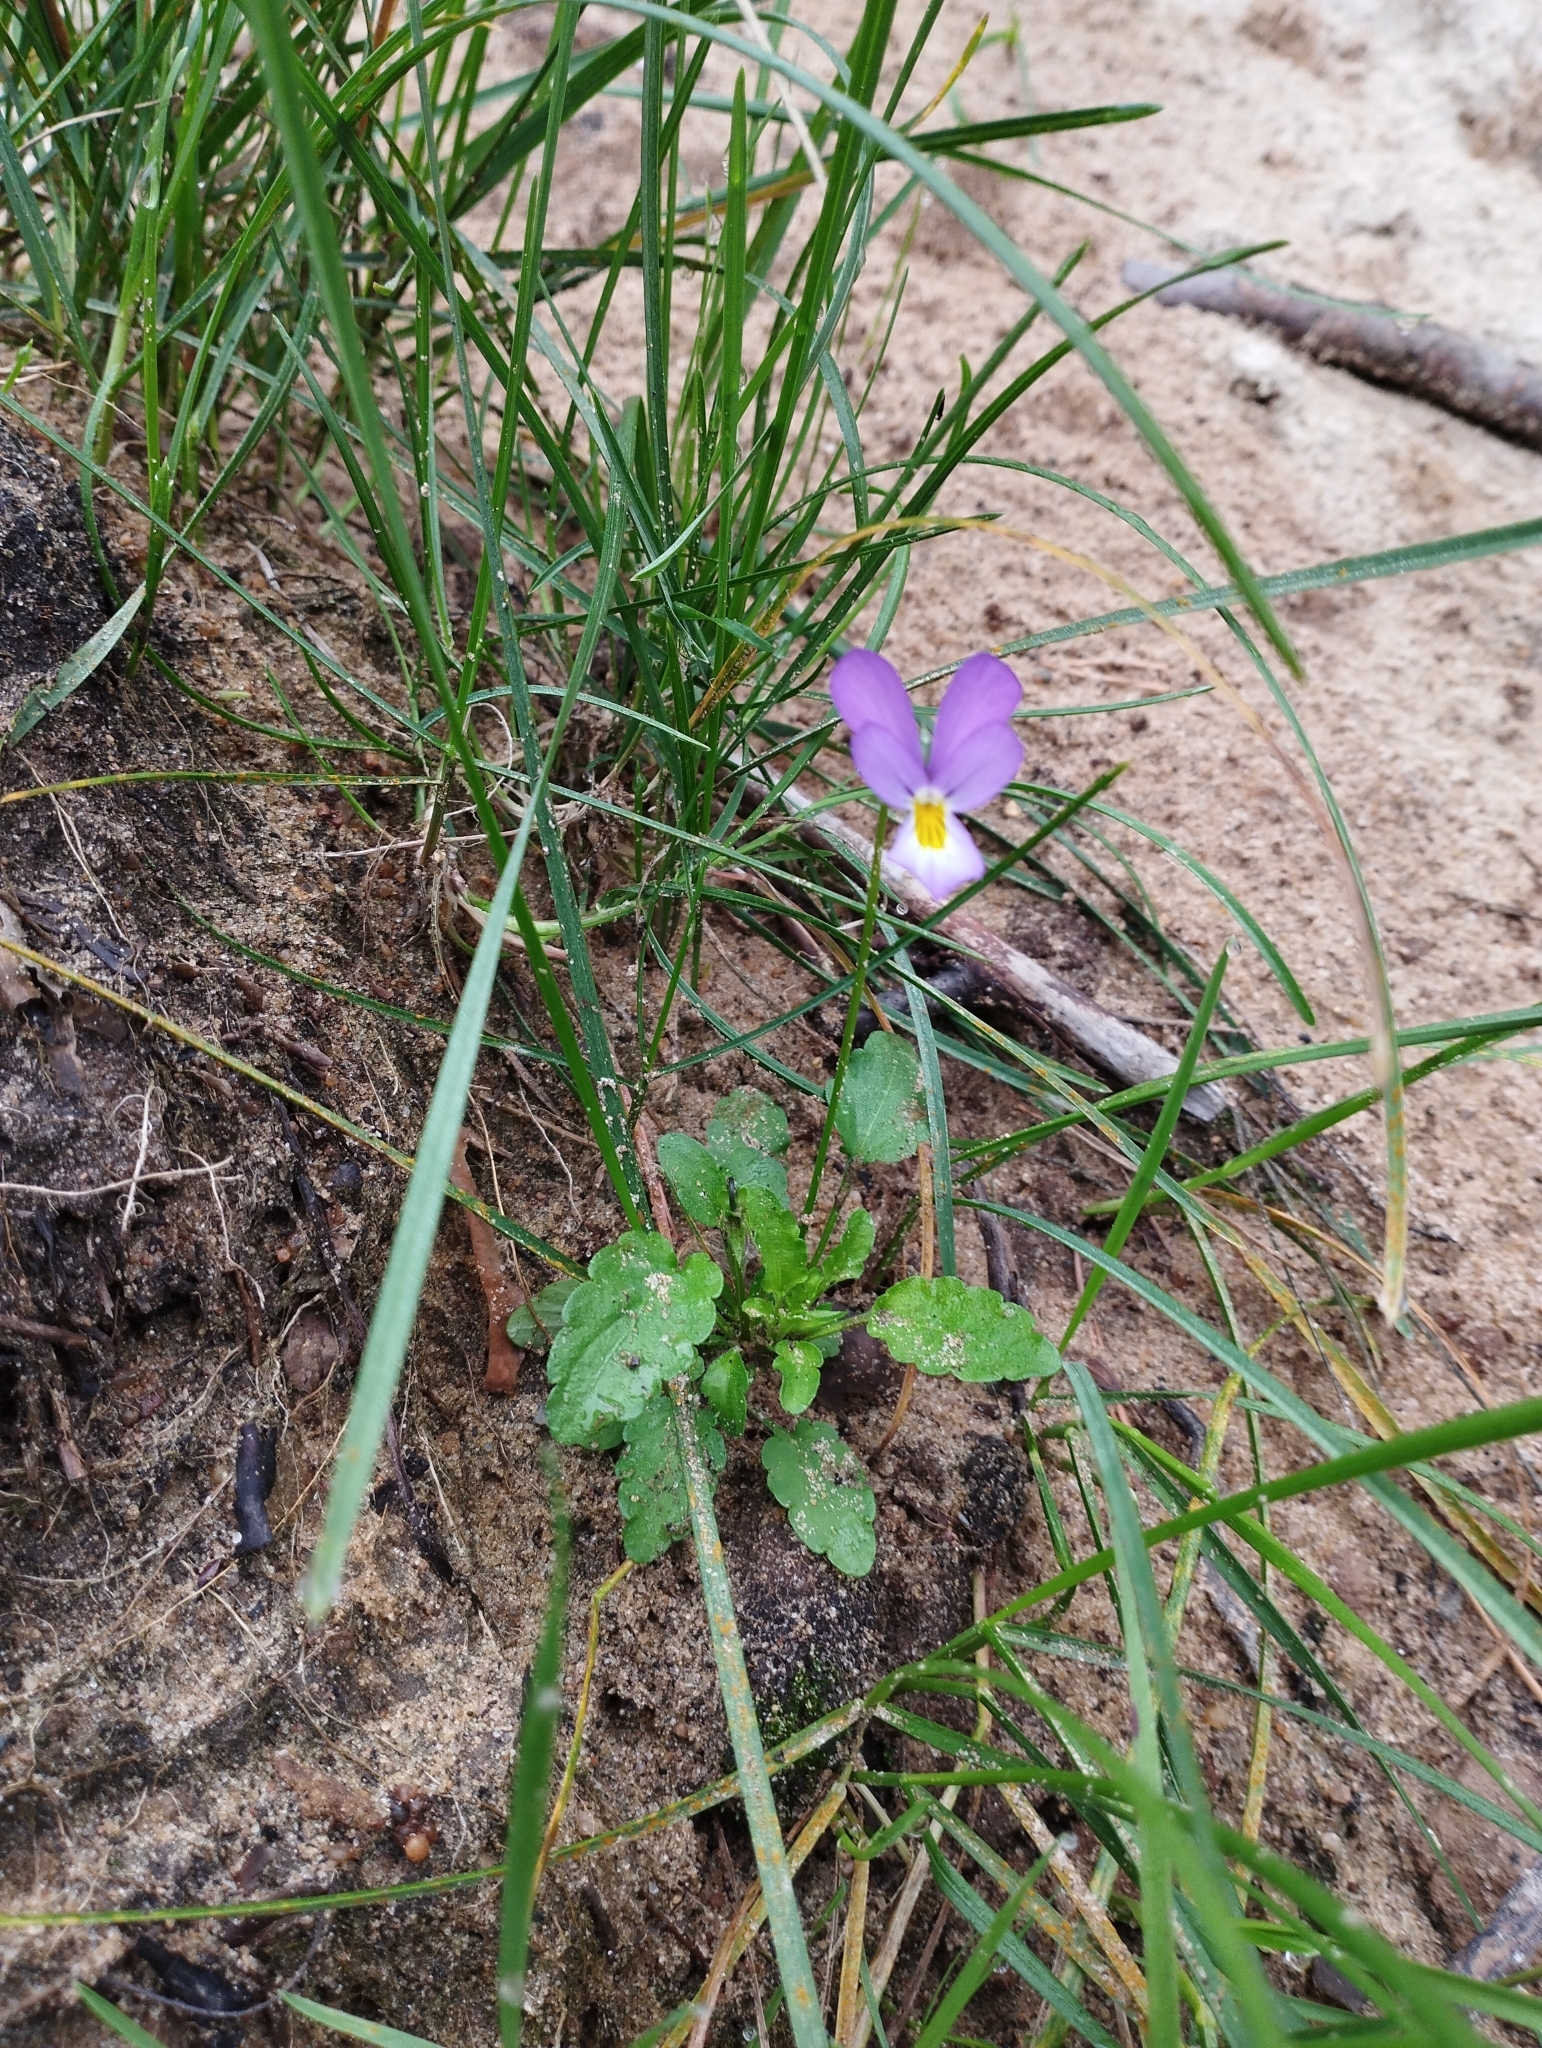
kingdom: Plantae
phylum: Tracheophyta
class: Magnoliopsida
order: Malpighiales
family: Violaceae
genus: Viola
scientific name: Viola tricolor
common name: Pansy
